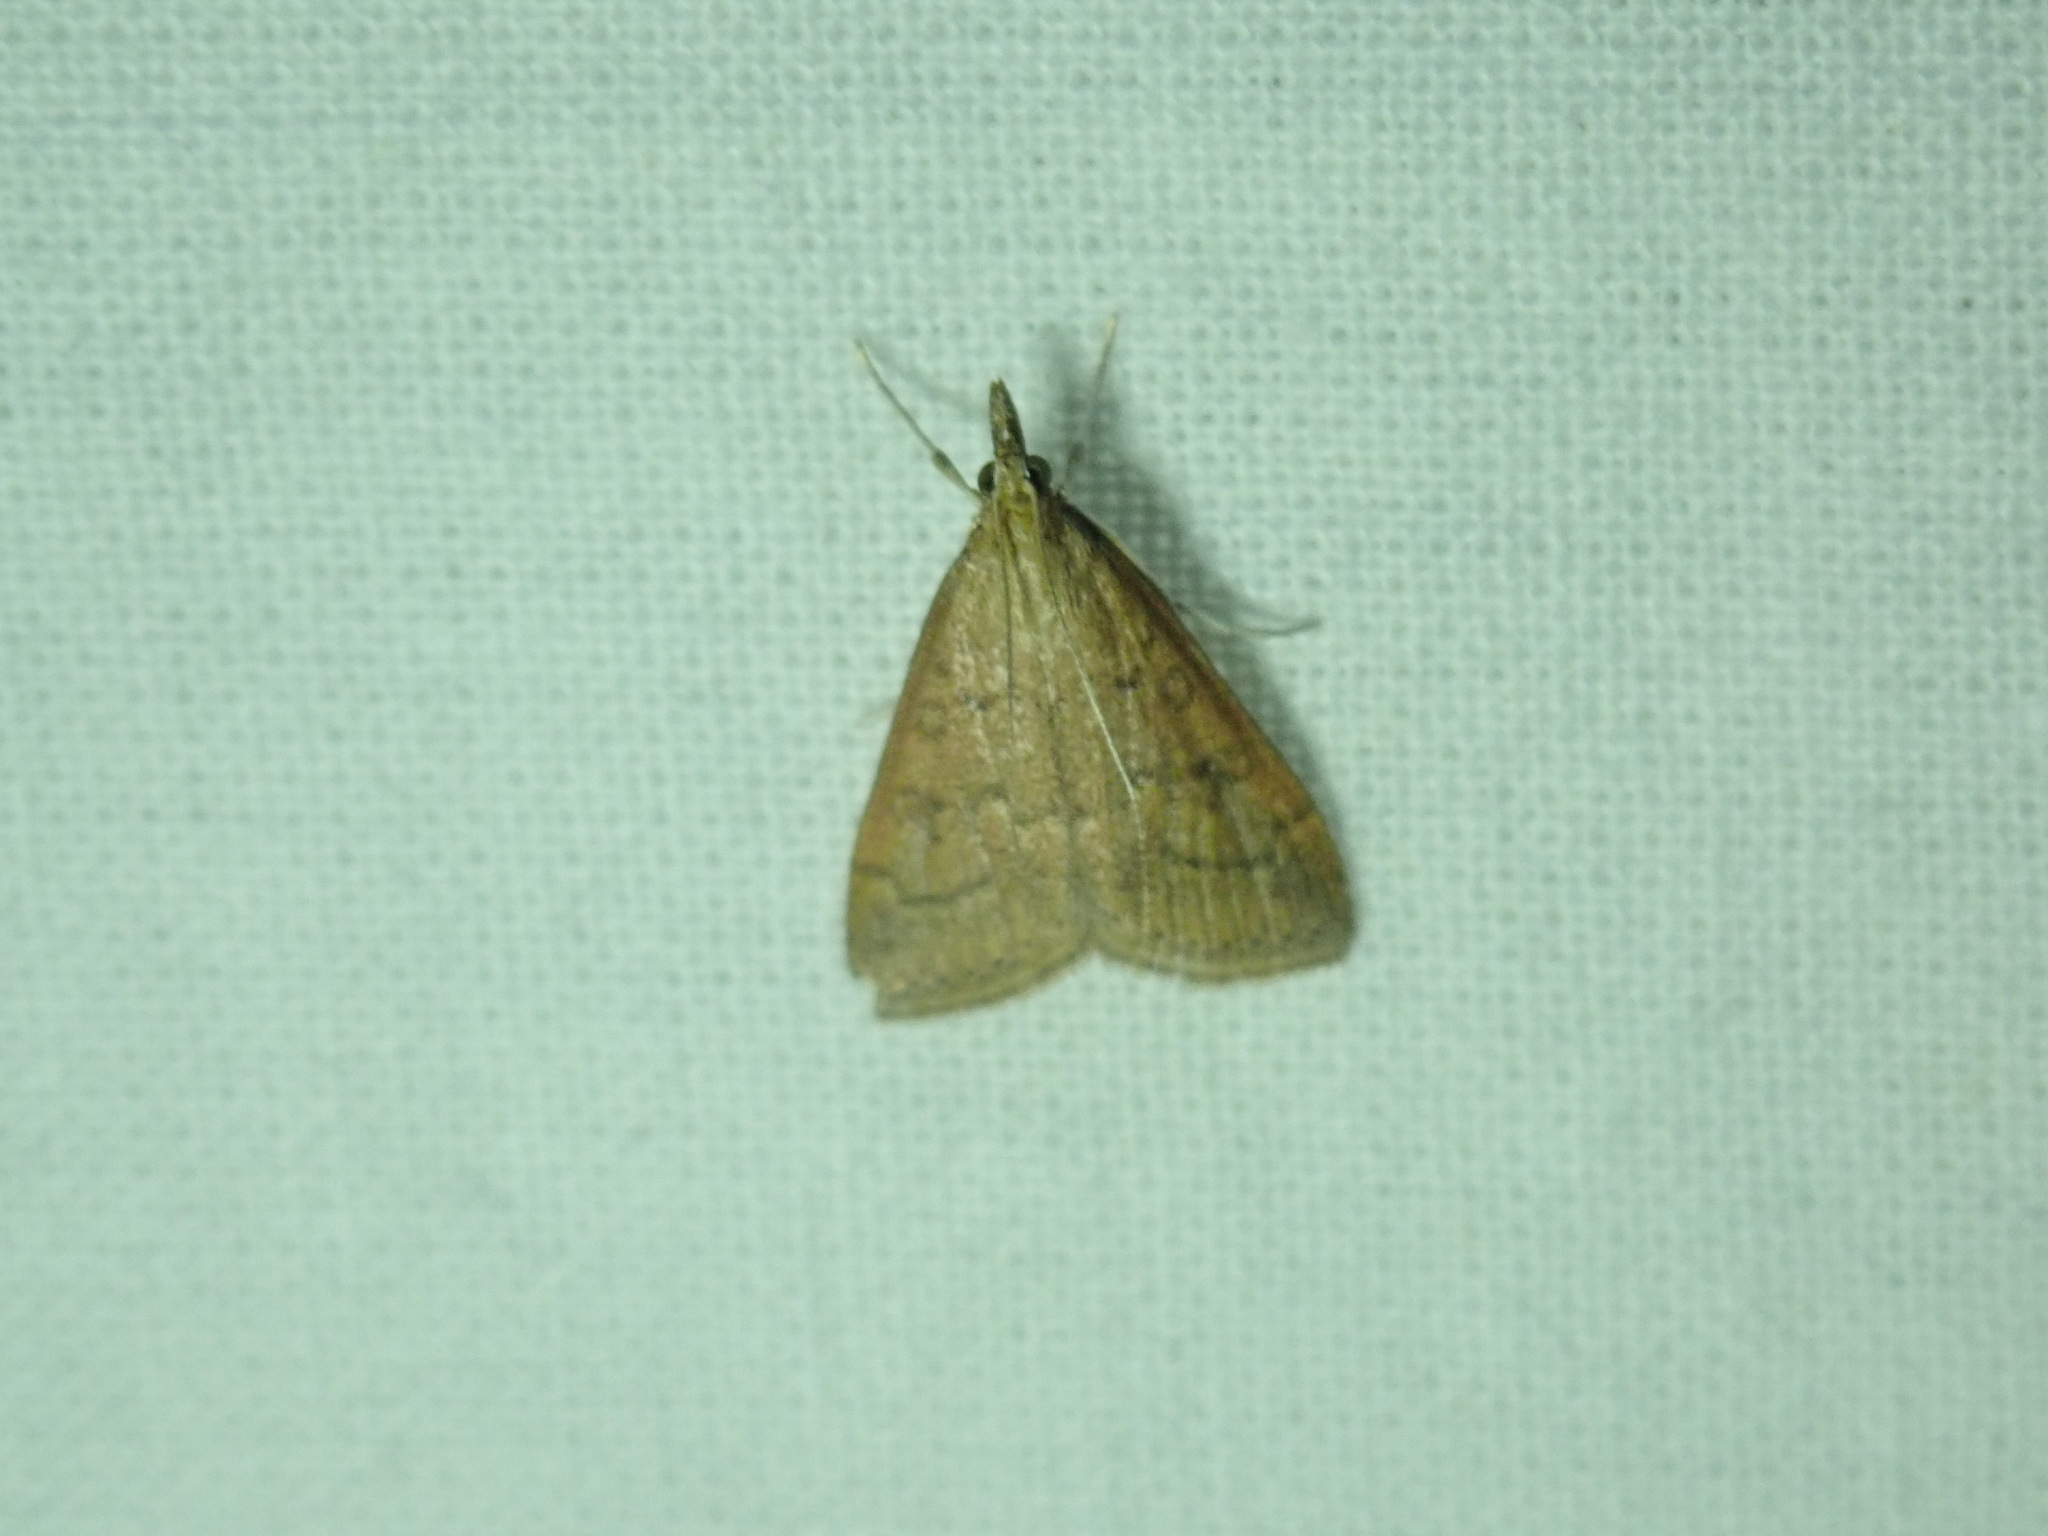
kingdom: Animalia
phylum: Arthropoda
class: Insecta
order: Lepidoptera
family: Crambidae
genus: Udea
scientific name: Udea rubigalis
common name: Celery leaftier moth
